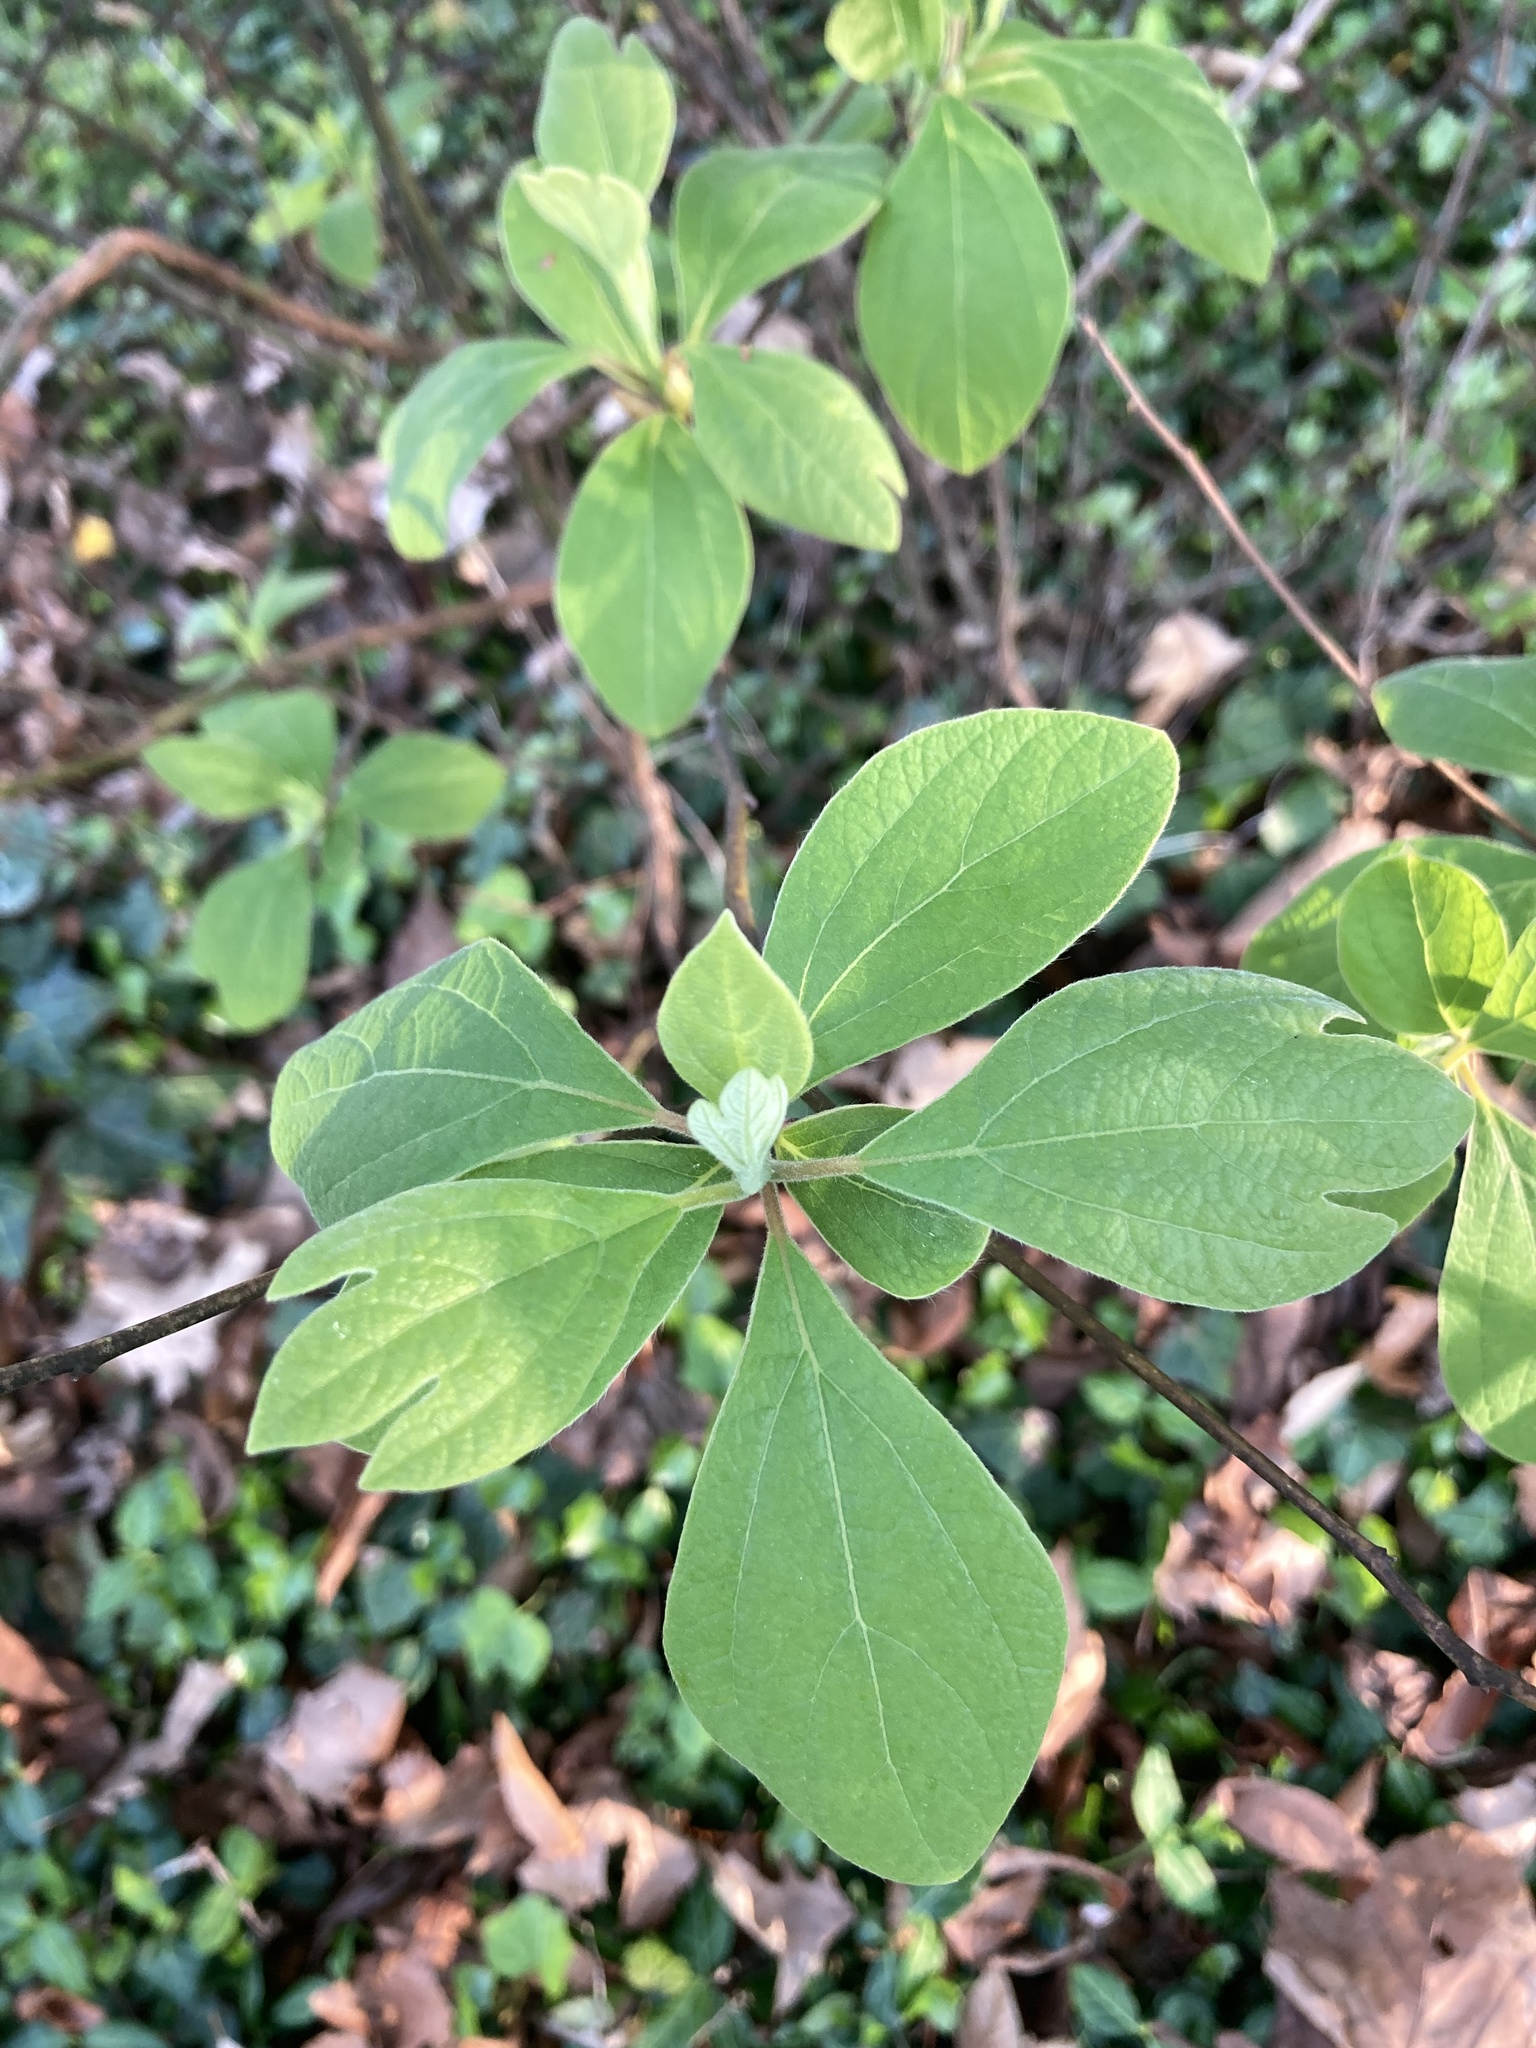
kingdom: Plantae
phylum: Tracheophyta
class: Magnoliopsida
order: Laurales
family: Lauraceae
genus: Sassafras
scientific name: Sassafras albidum
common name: Sassafras
